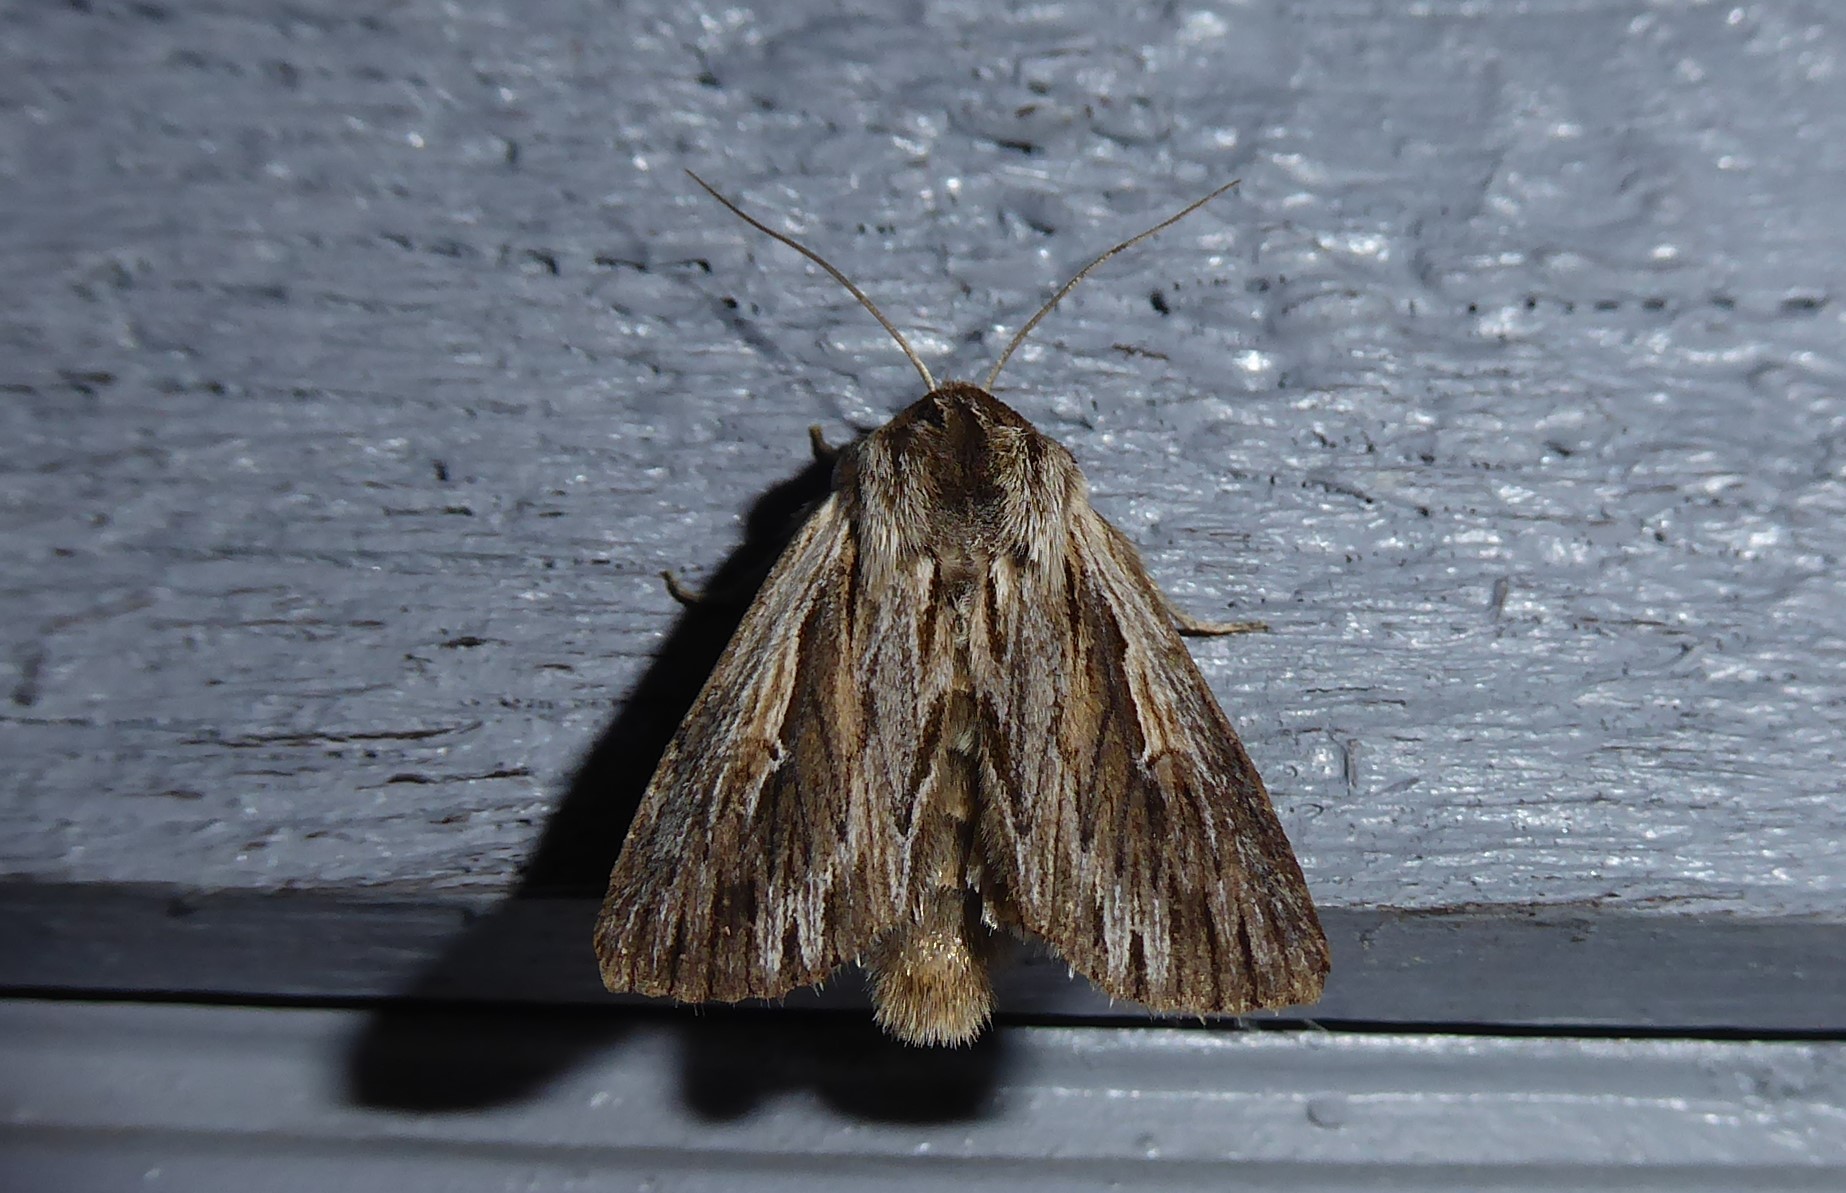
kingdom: Animalia
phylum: Arthropoda
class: Insecta
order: Lepidoptera
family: Noctuidae
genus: Persectania
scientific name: Persectania aversa
